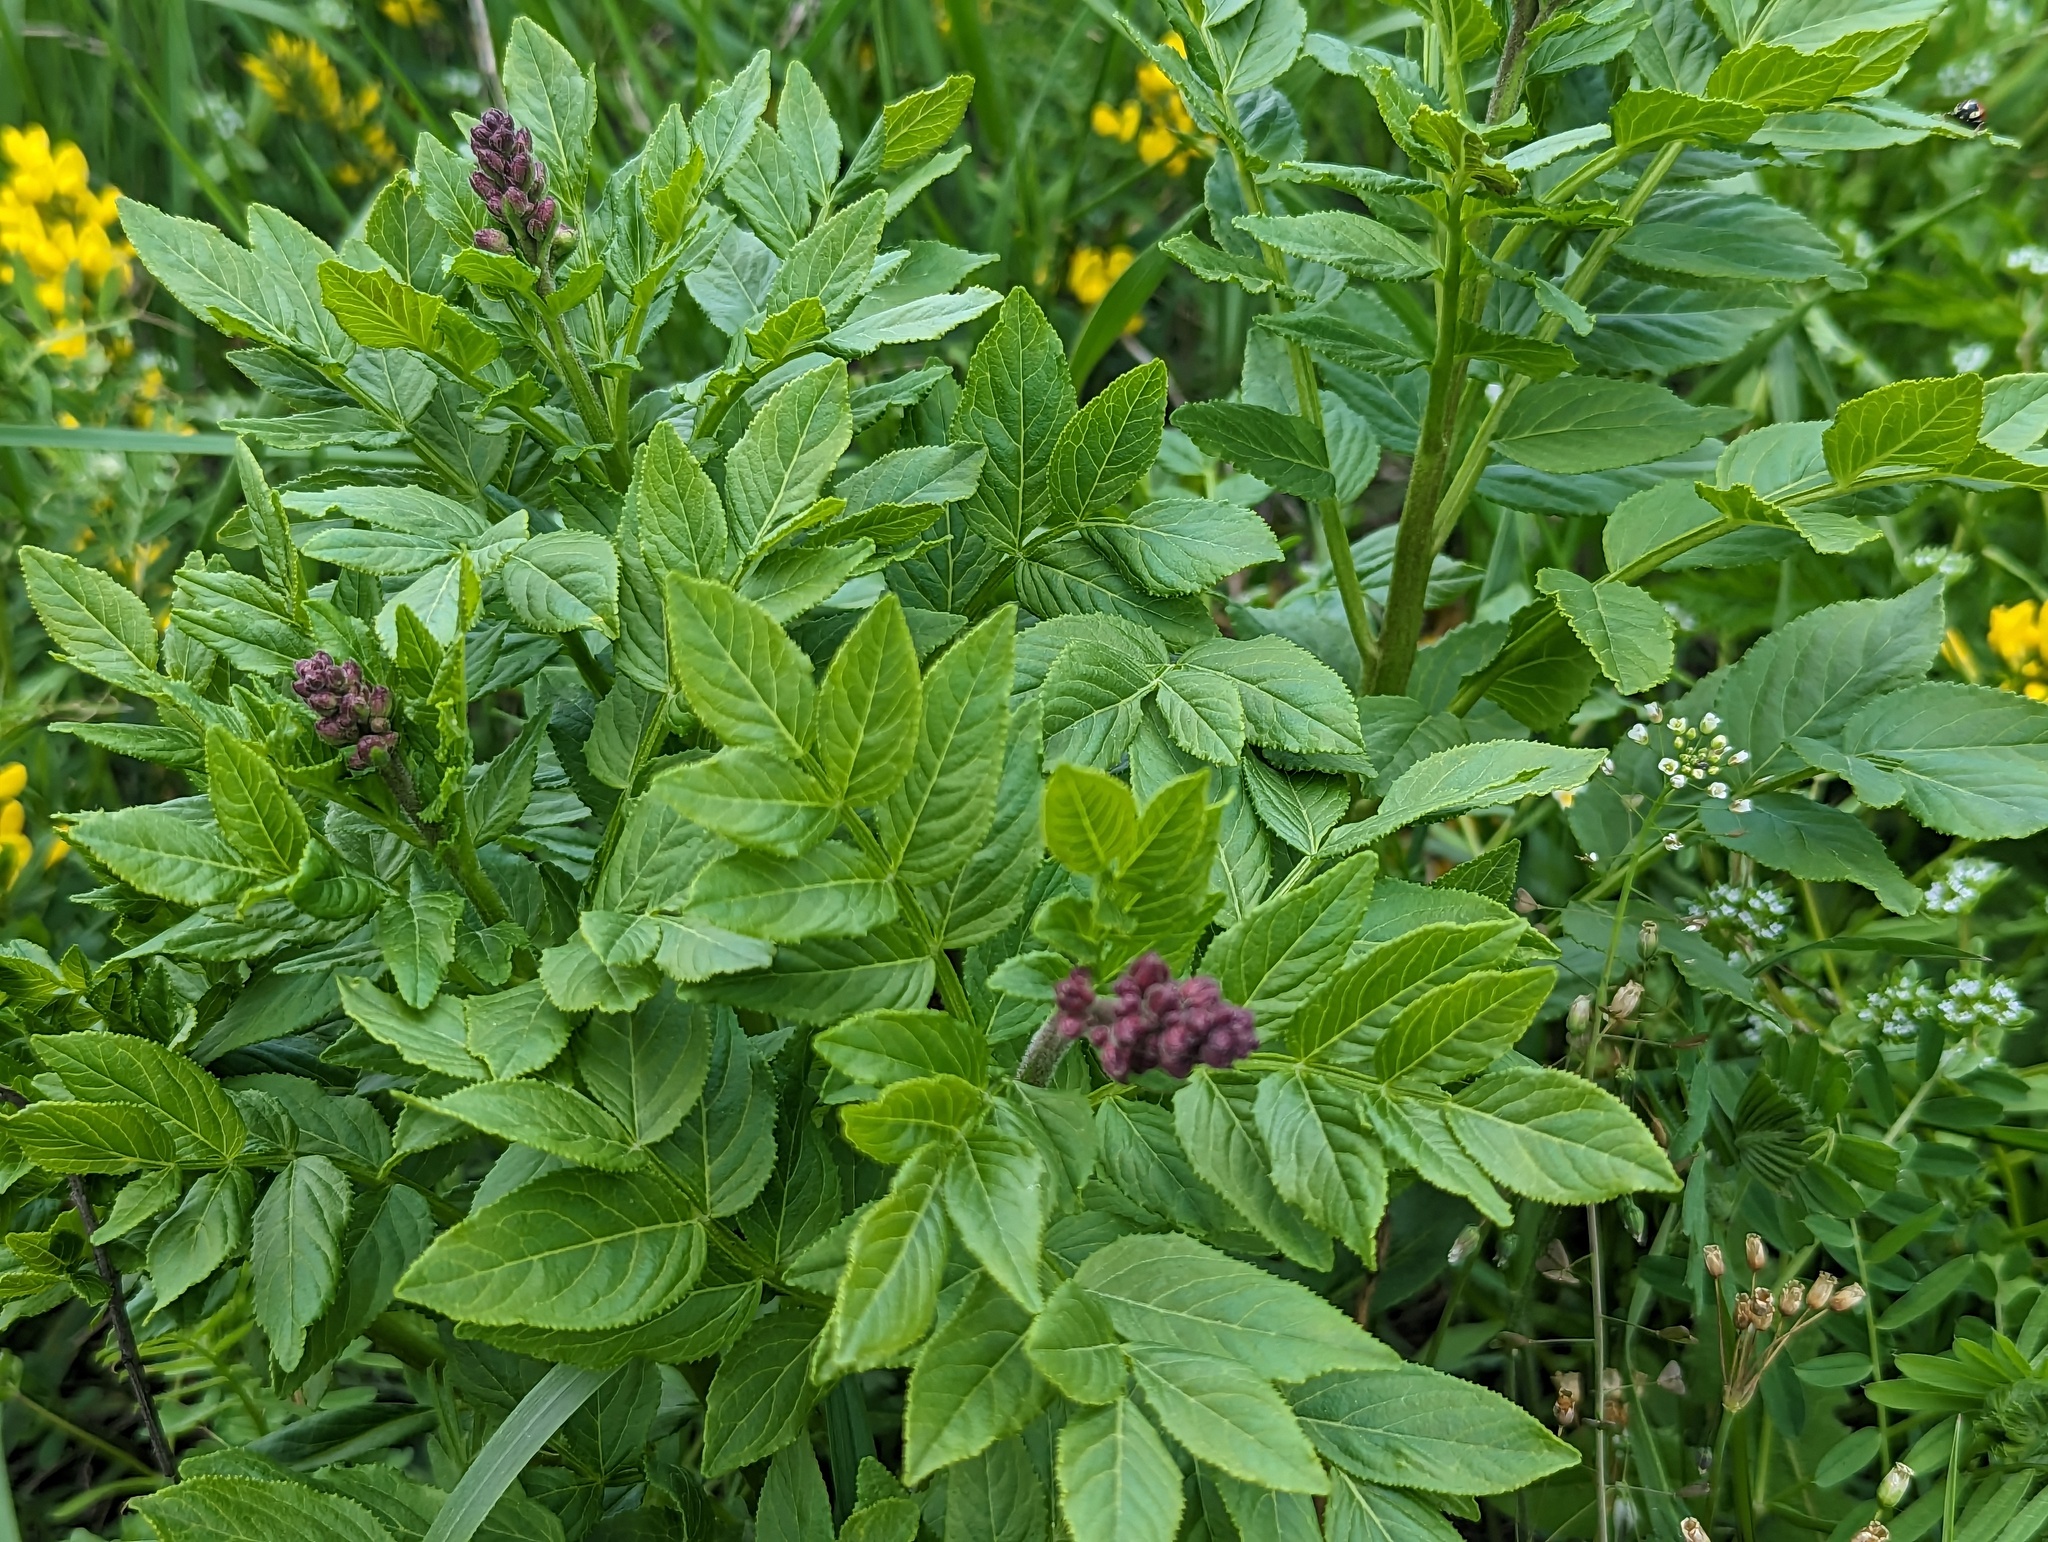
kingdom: Plantae
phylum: Tracheophyta
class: Magnoliopsida
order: Sapindales
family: Rutaceae
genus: Dictamnus
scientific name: Dictamnus albus
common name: Gasplant
